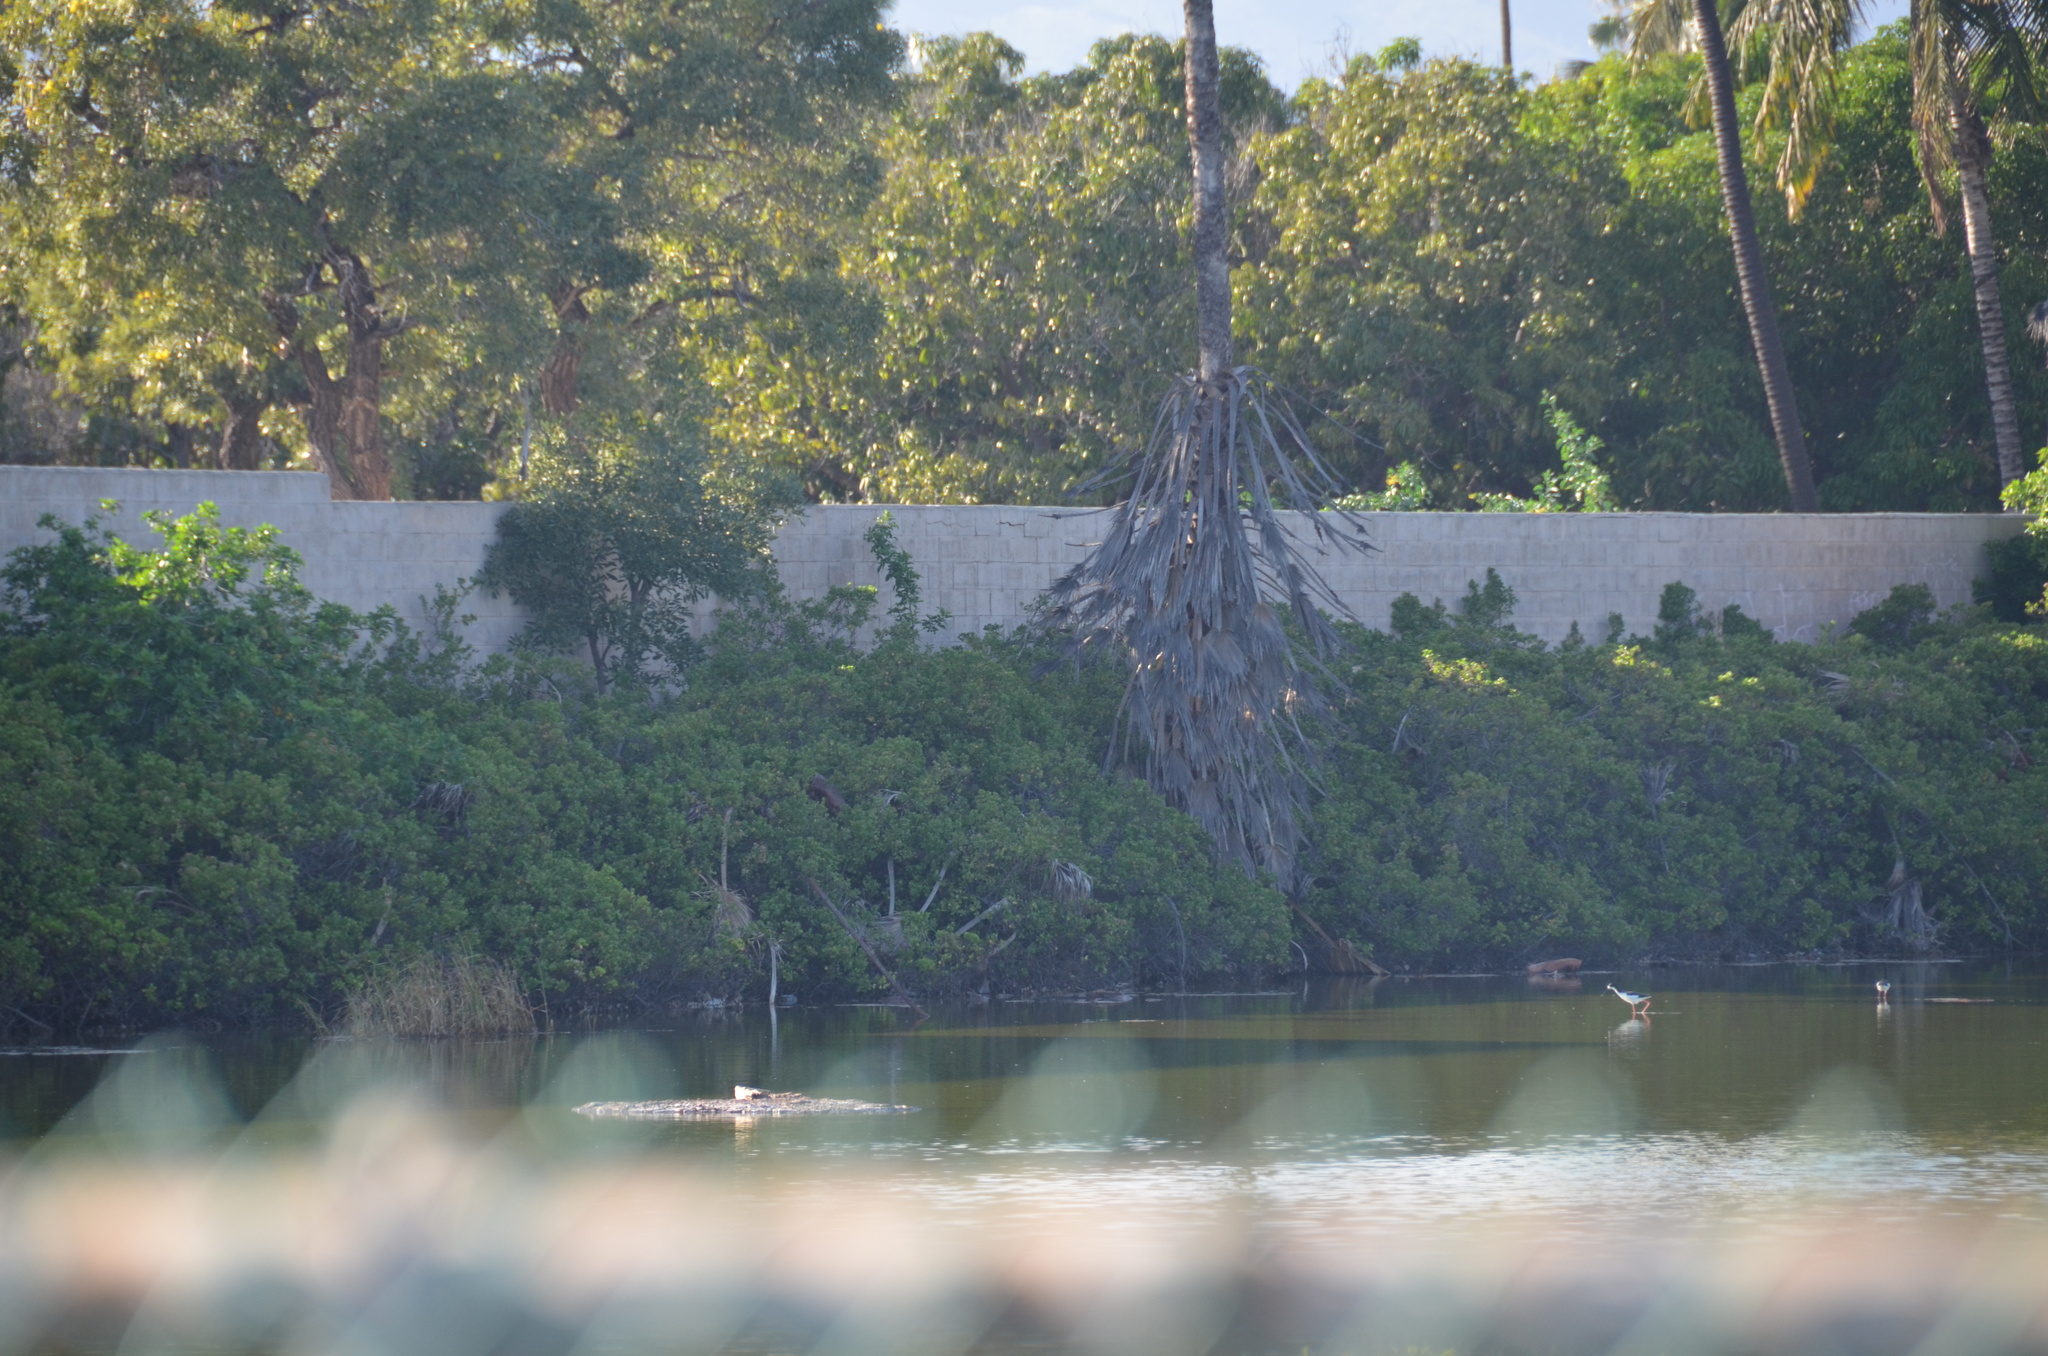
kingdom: Animalia
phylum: Chordata
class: Aves
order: Charadriiformes
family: Recurvirostridae
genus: Himantopus
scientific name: Himantopus mexicanus
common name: Black-necked stilt
